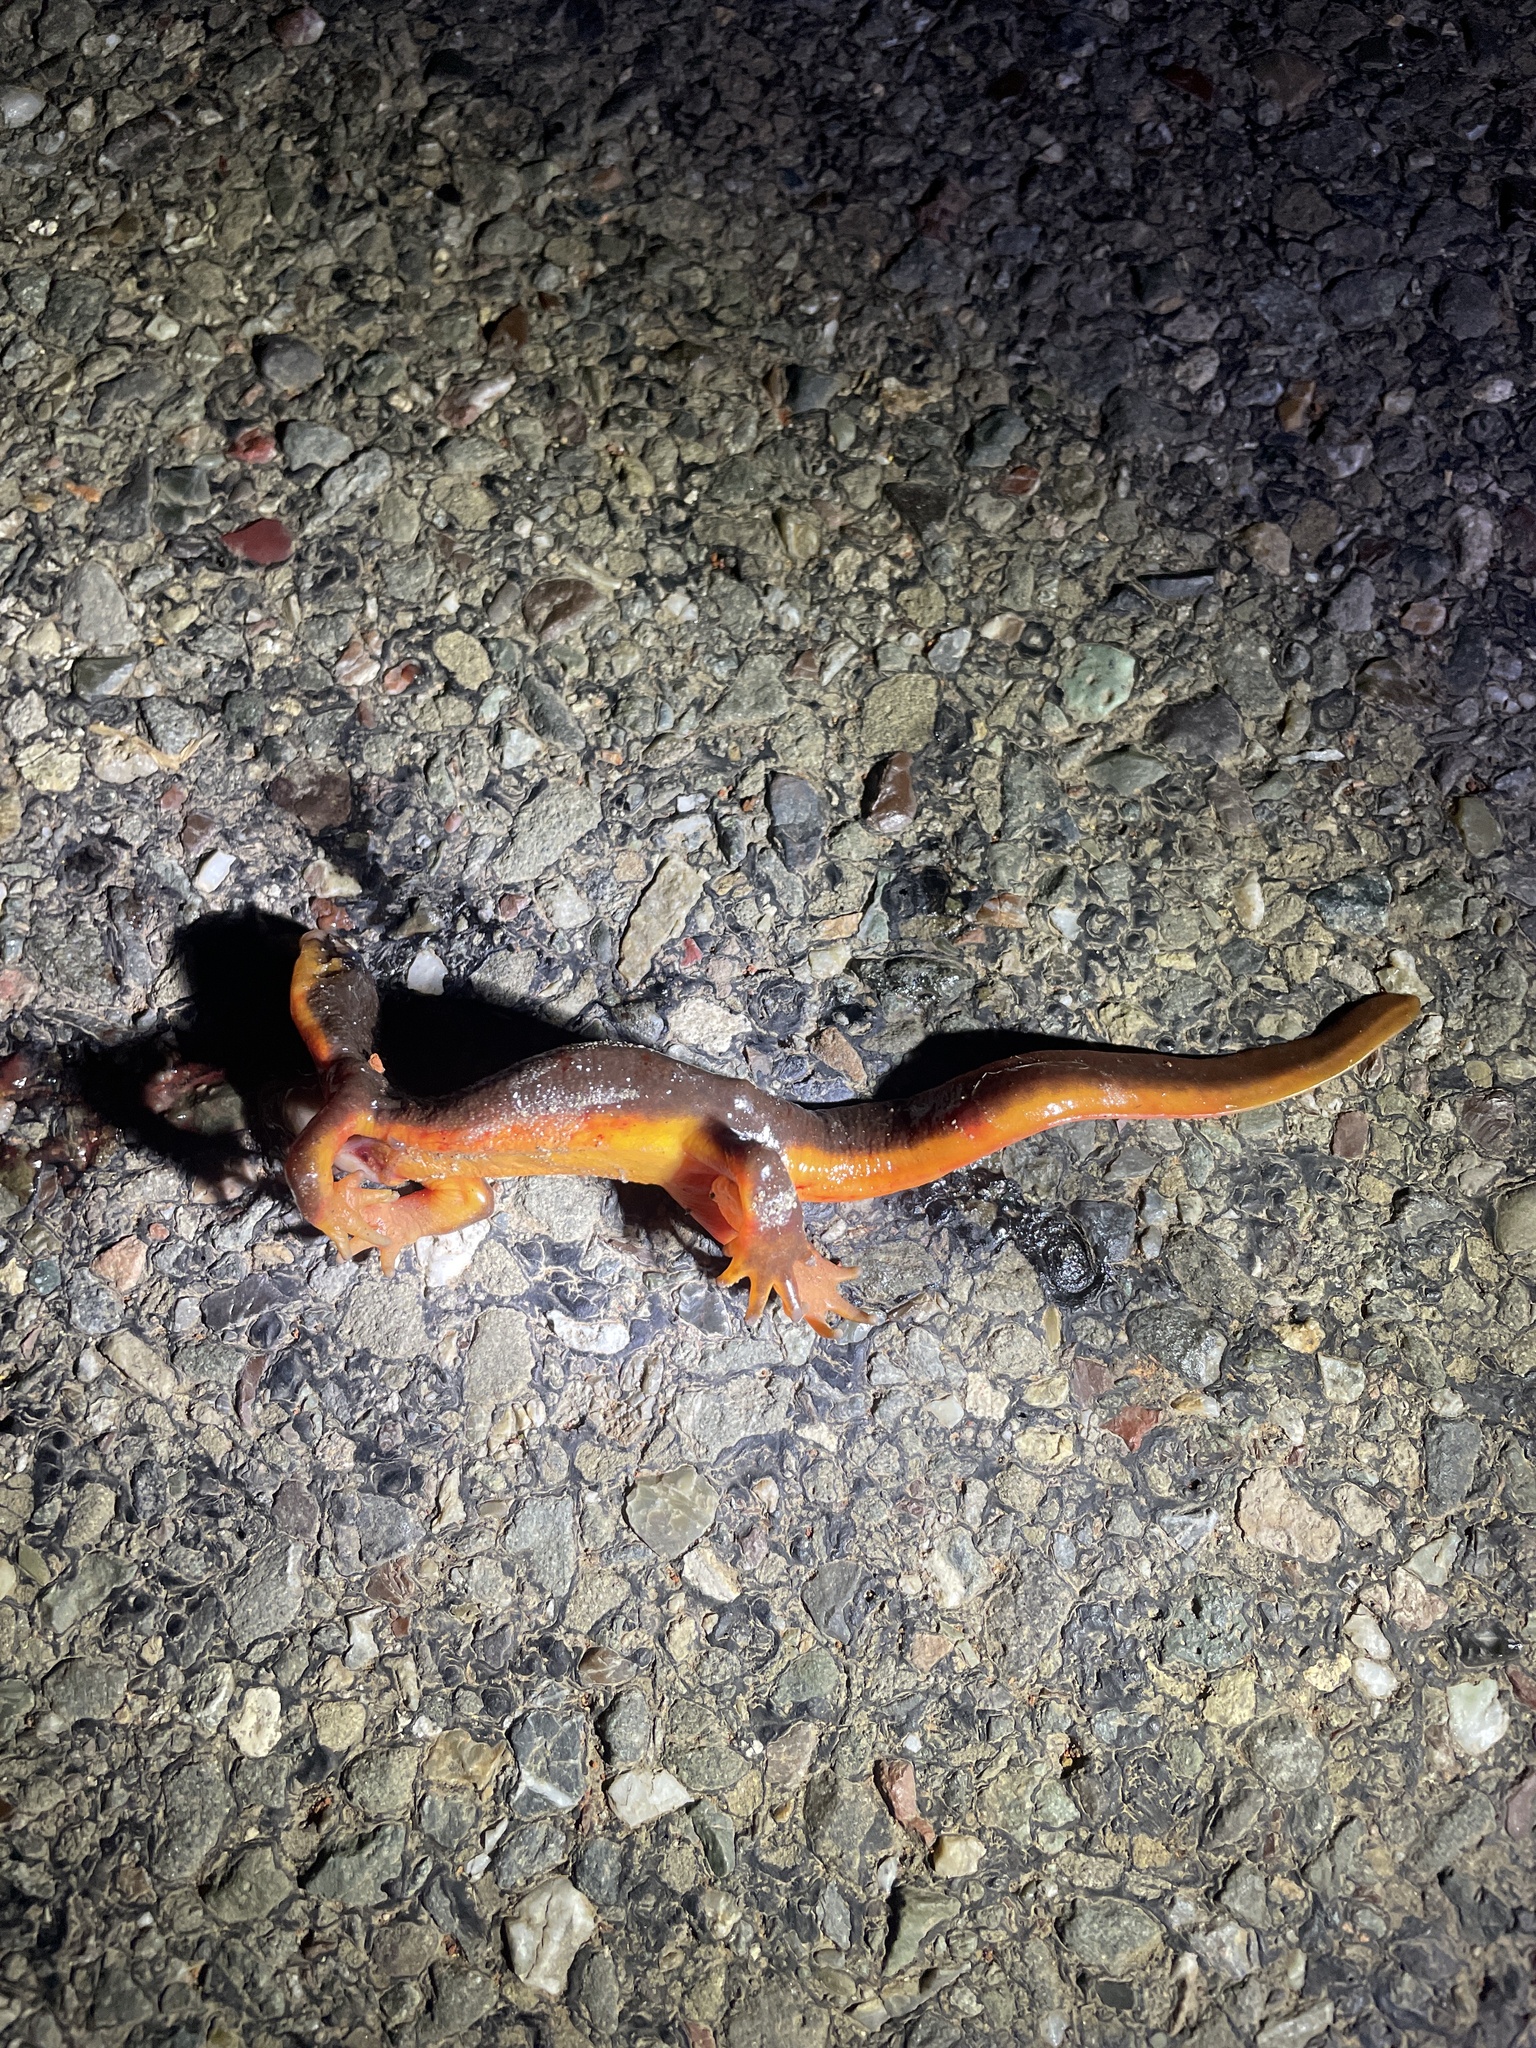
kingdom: Animalia
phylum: Chordata
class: Amphibia
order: Caudata
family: Salamandridae
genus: Taricha
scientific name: Taricha
